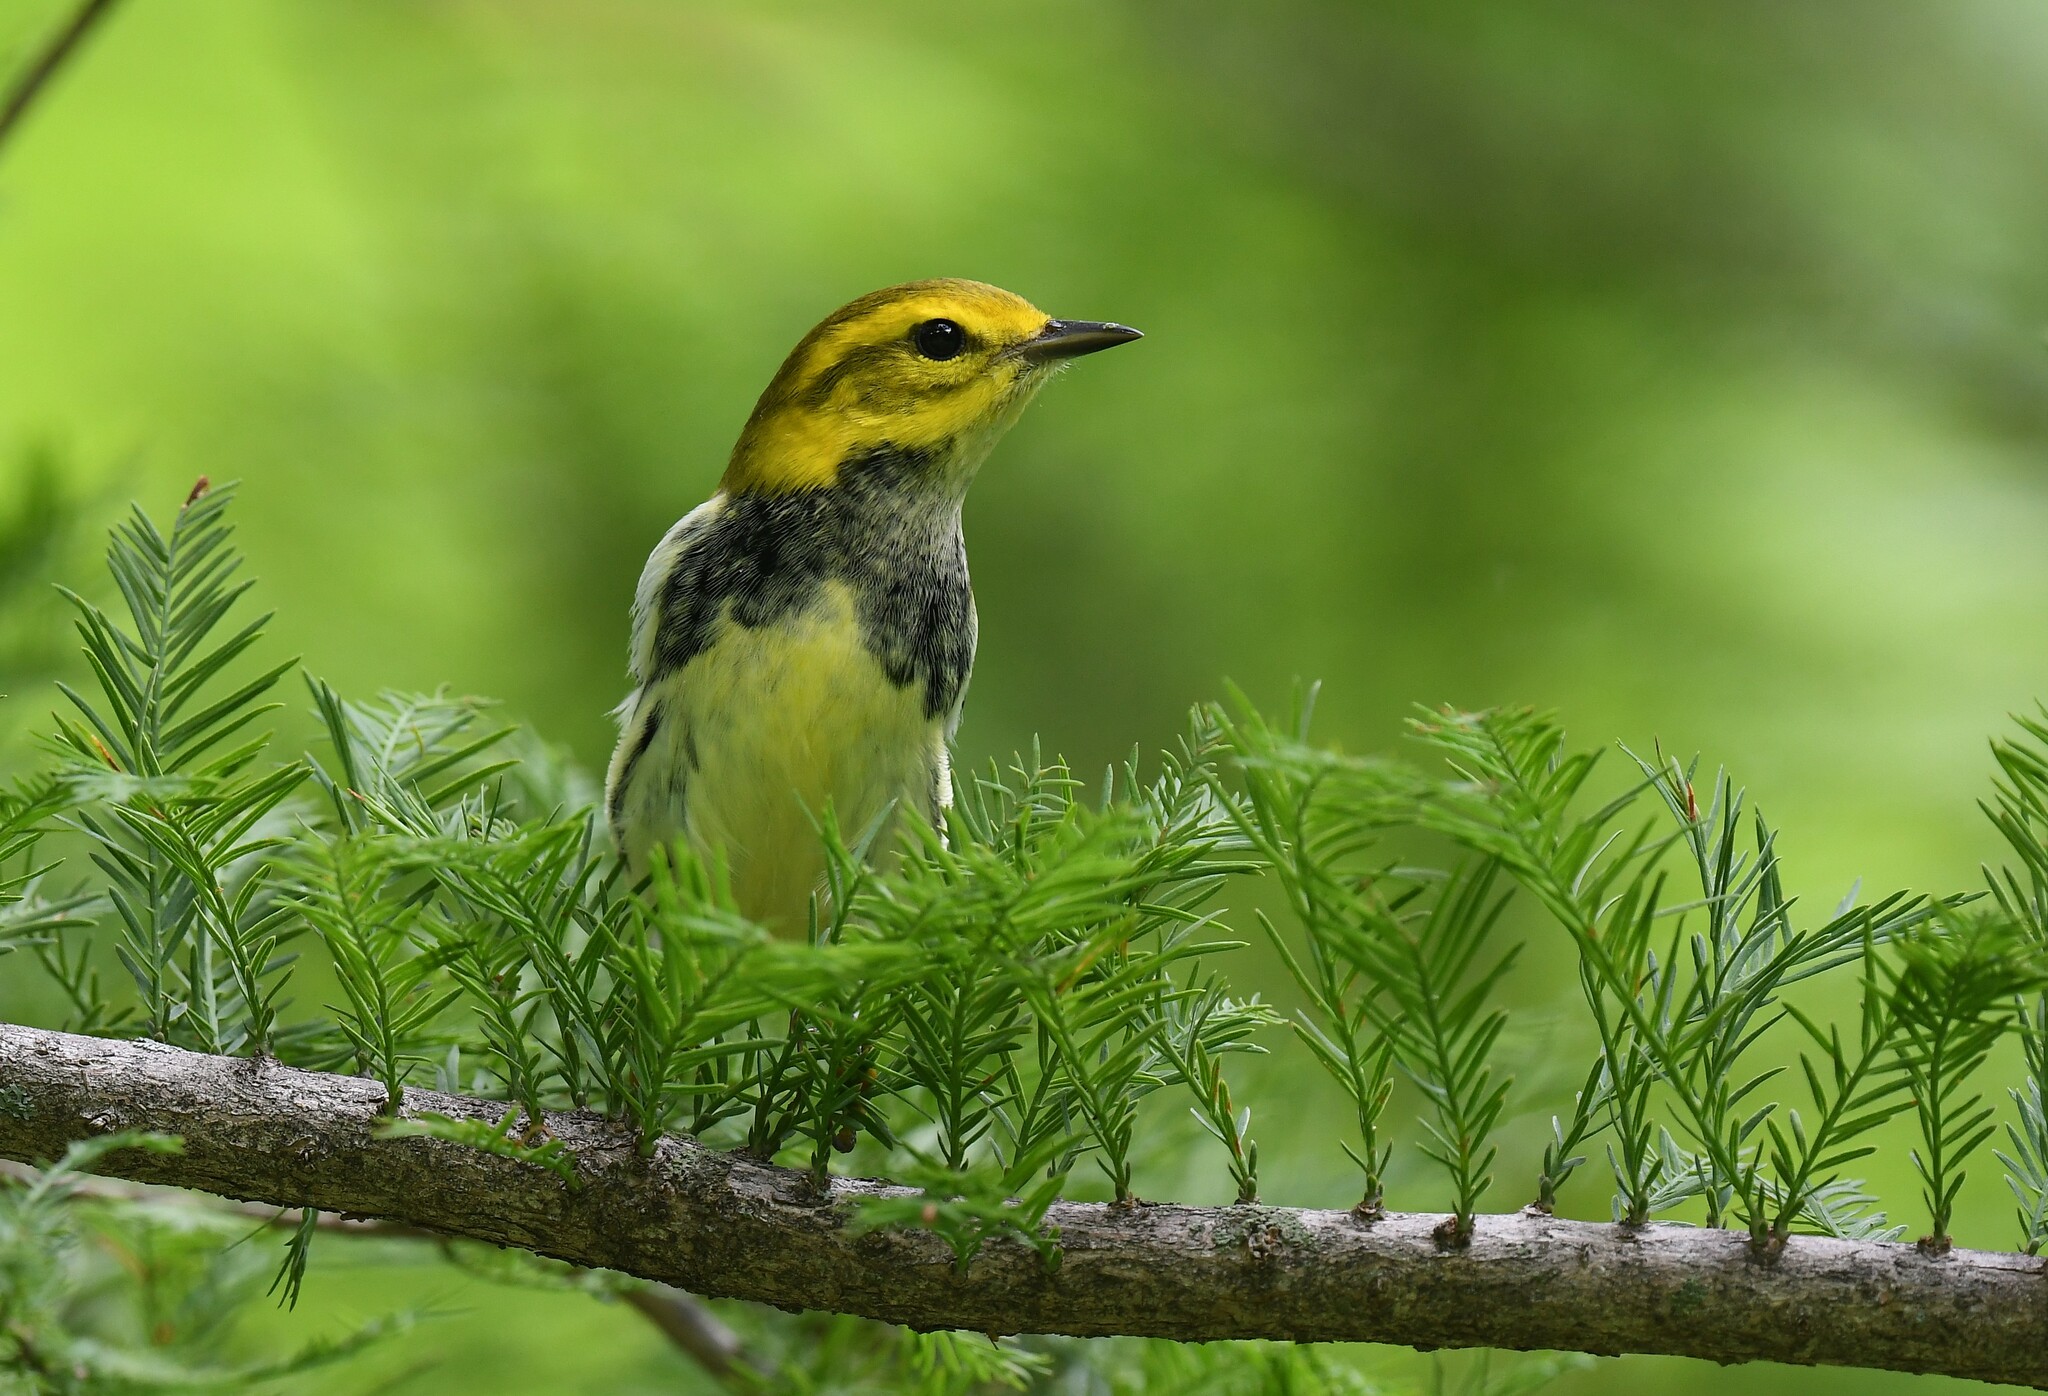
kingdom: Animalia
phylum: Chordata
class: Aves
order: Passeriformes
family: Parulidae
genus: Setophaga
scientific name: Setophaga virens
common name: Black-throated green warbler
